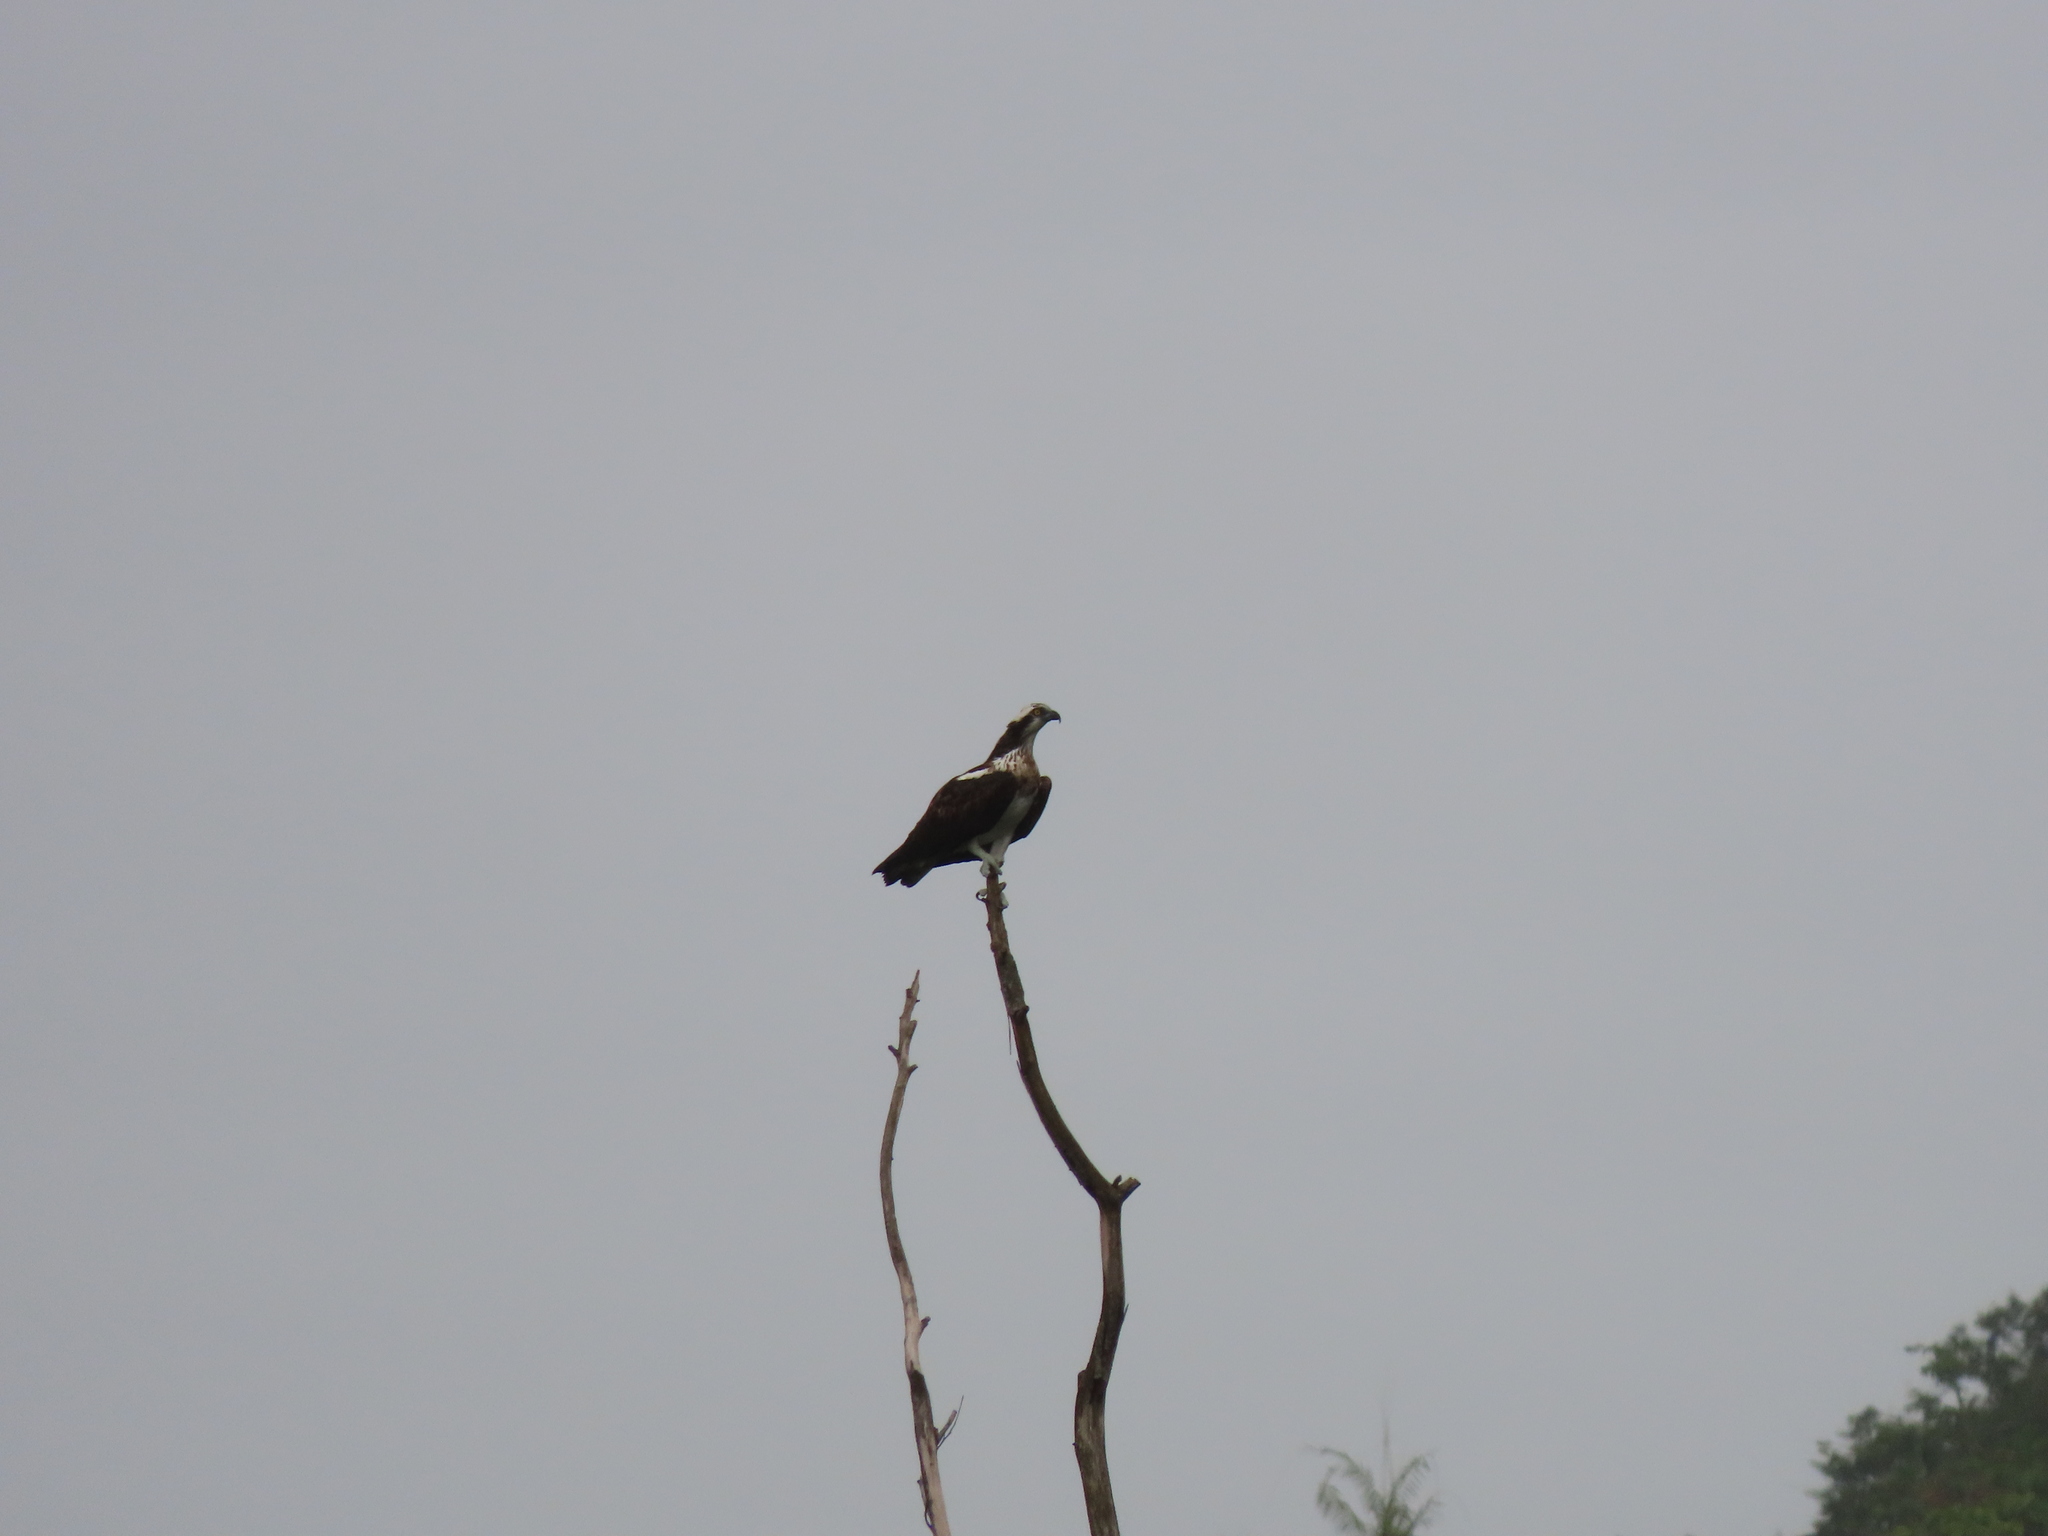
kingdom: Animalia
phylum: Chordata
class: Aves
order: Accipitriformes
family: Pandionidae
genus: Pandion
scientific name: Pandion haliaetus
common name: Osprey
